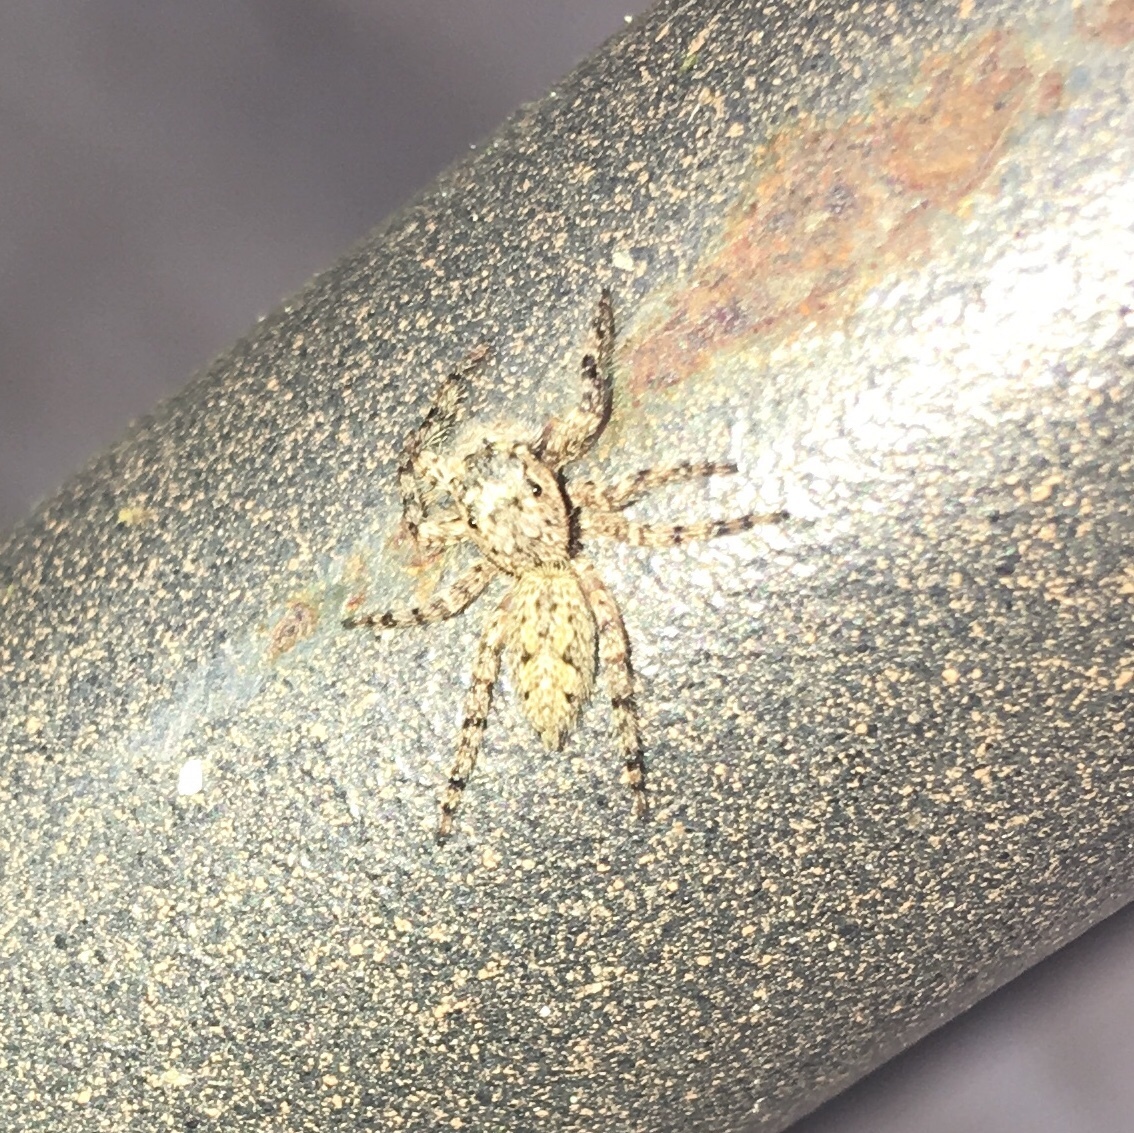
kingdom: Animalia
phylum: Arthropoda
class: Arachnida
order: Araneae
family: Salticidae
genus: Platycryptus
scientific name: Platycryptus undatus
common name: Tan jumping spider
